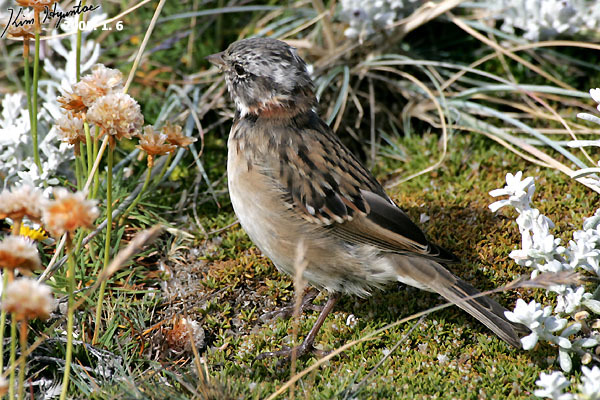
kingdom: Animalia
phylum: Chordata
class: Aves
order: Passeriformes
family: Passerellidae
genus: Zonotrichia
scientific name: Zonotrichia capensis
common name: Rufous-collared sparrow
